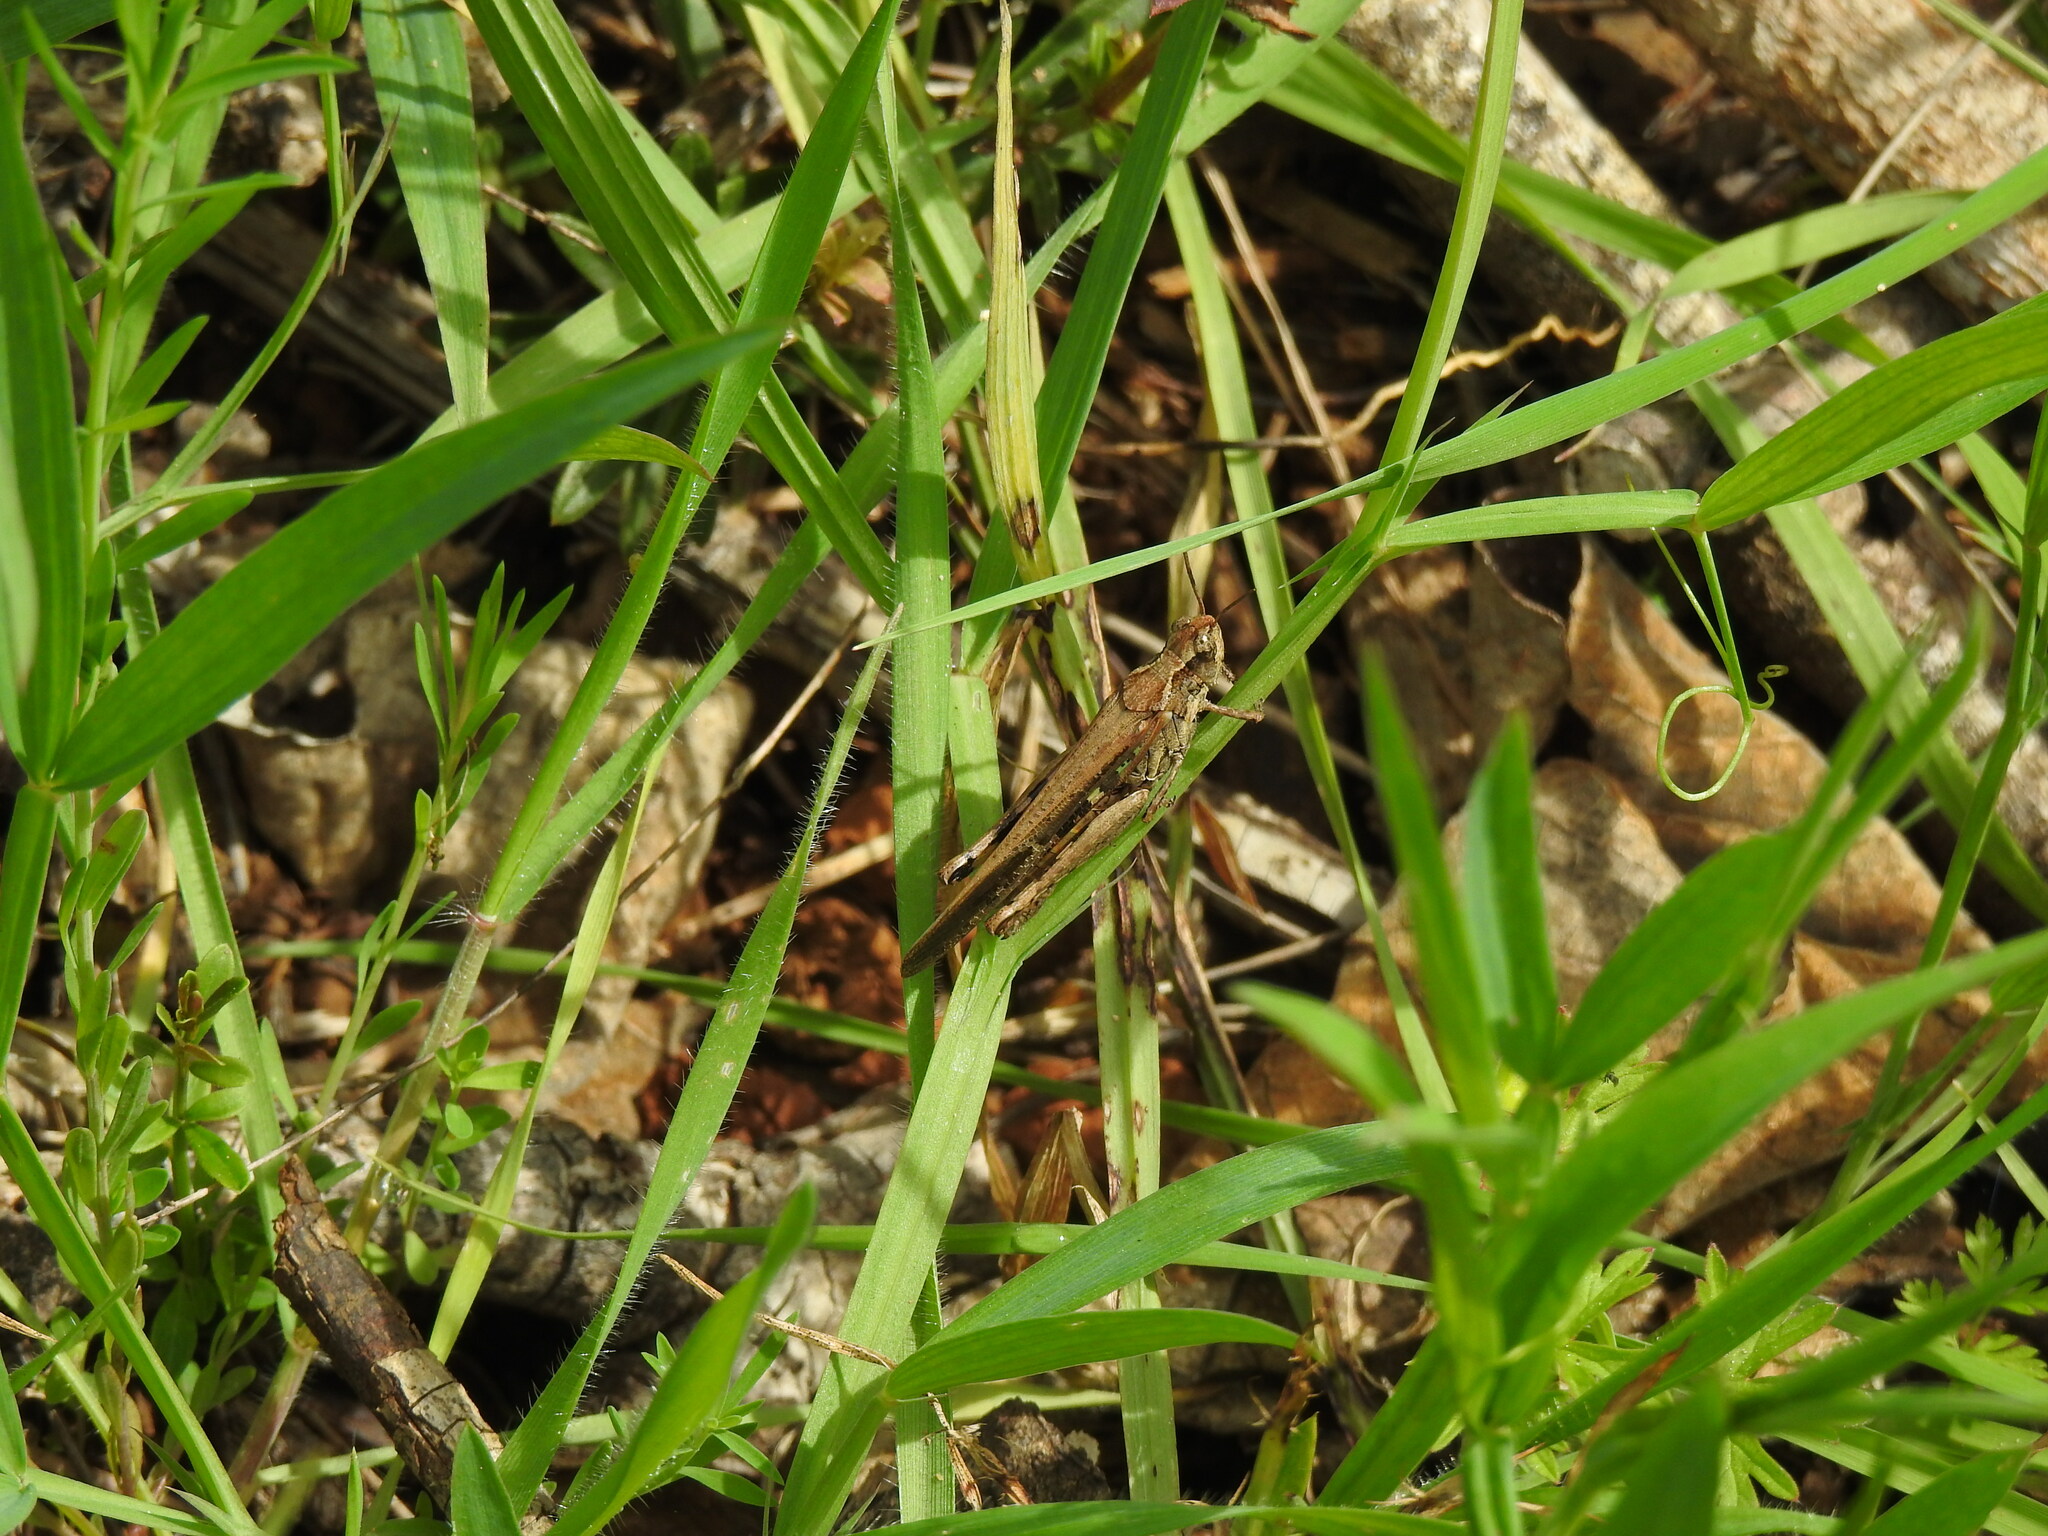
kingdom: Animalia
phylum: Arthropoda
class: Insecta
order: Orthoptera
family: Acrididae
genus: Aiolopus
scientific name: Aiolopus puissanti
